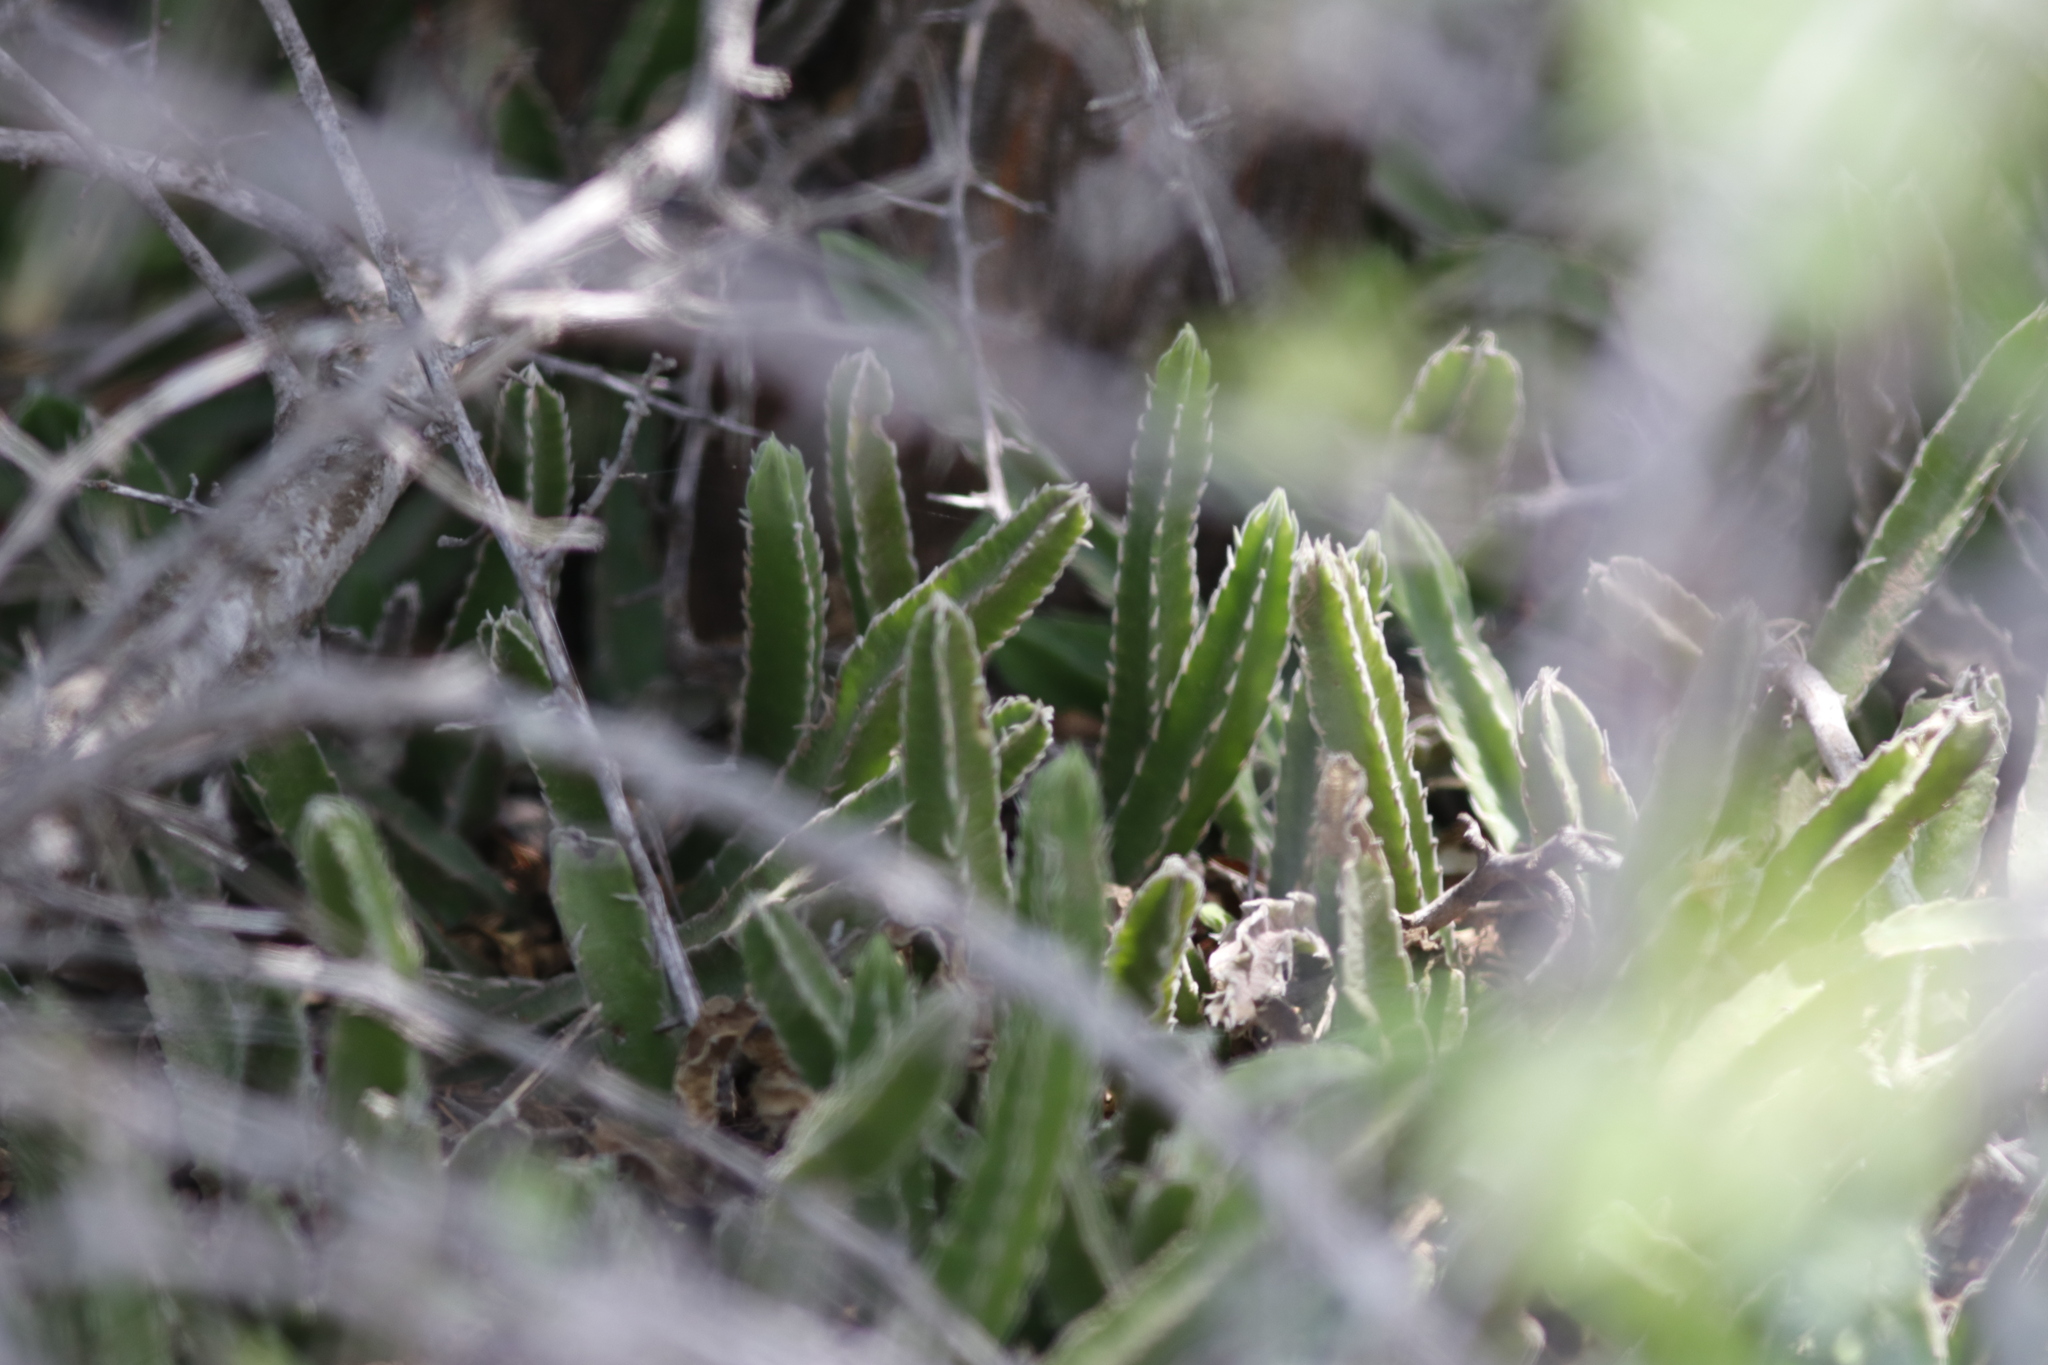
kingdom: Plantae
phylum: Tracheophyta
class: Magnoliopsida
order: Gentianales
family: Apocynaceae
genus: Stapelia
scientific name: Stapelia gettliffei
